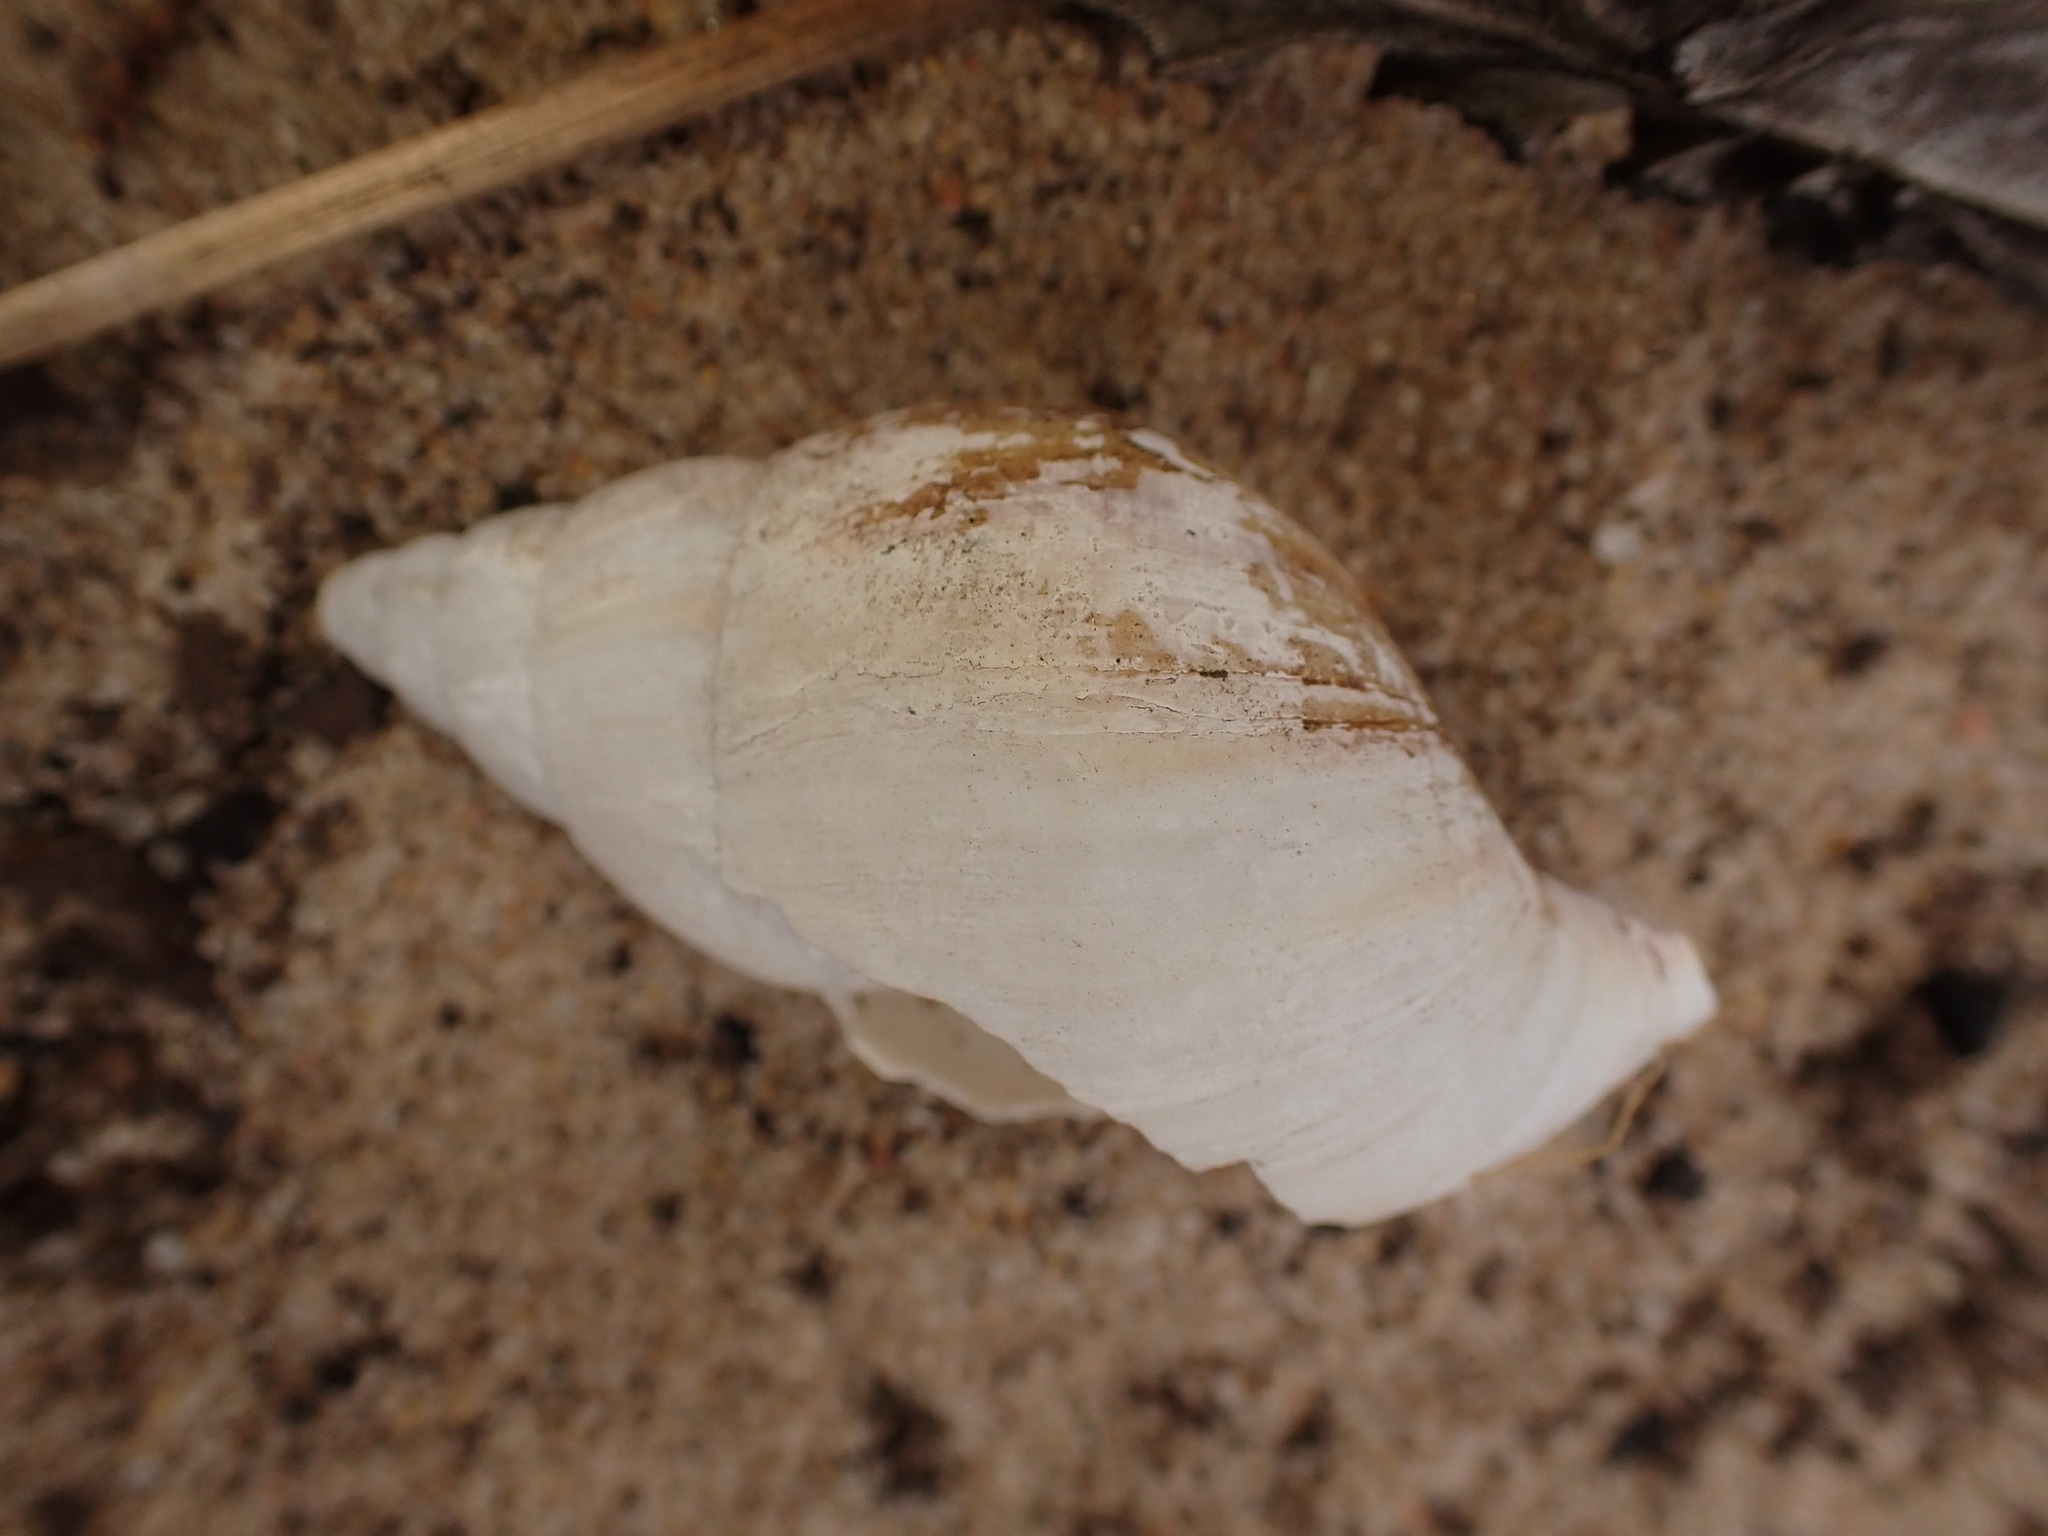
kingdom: Animalia
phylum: Mollusca
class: Gastropoda
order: Stylommatophora
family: Achatinidae
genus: Lissachatina
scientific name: Lissachatina fulica
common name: Giant african snail
